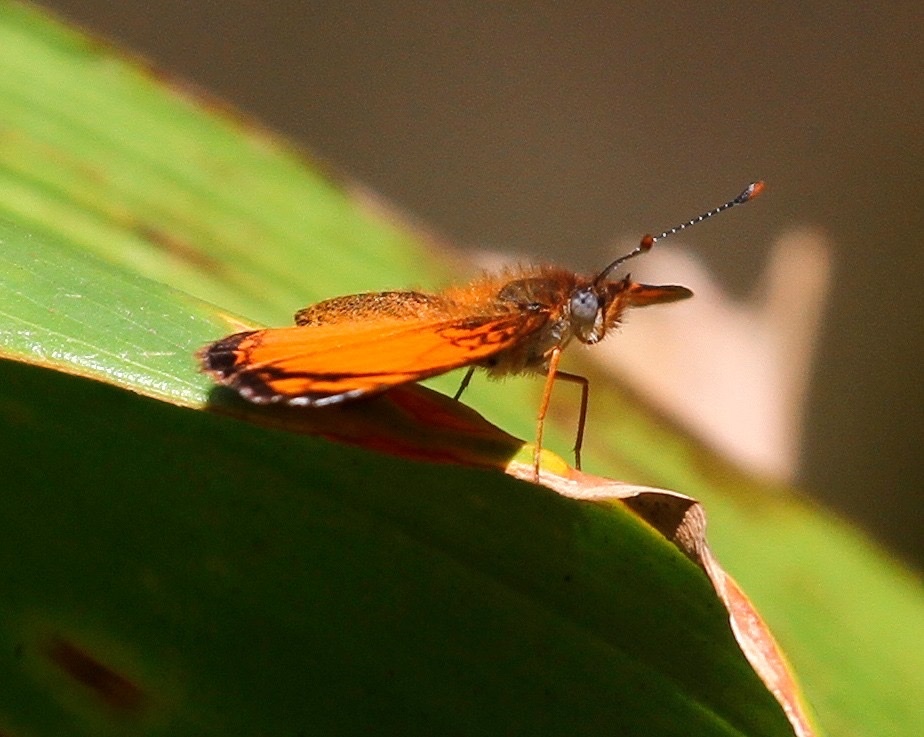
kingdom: Animalia
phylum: Arthropoda
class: Insecta
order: Lepidoptera
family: Nymphalidae
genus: Tegosa
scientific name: Tegosa claudina
